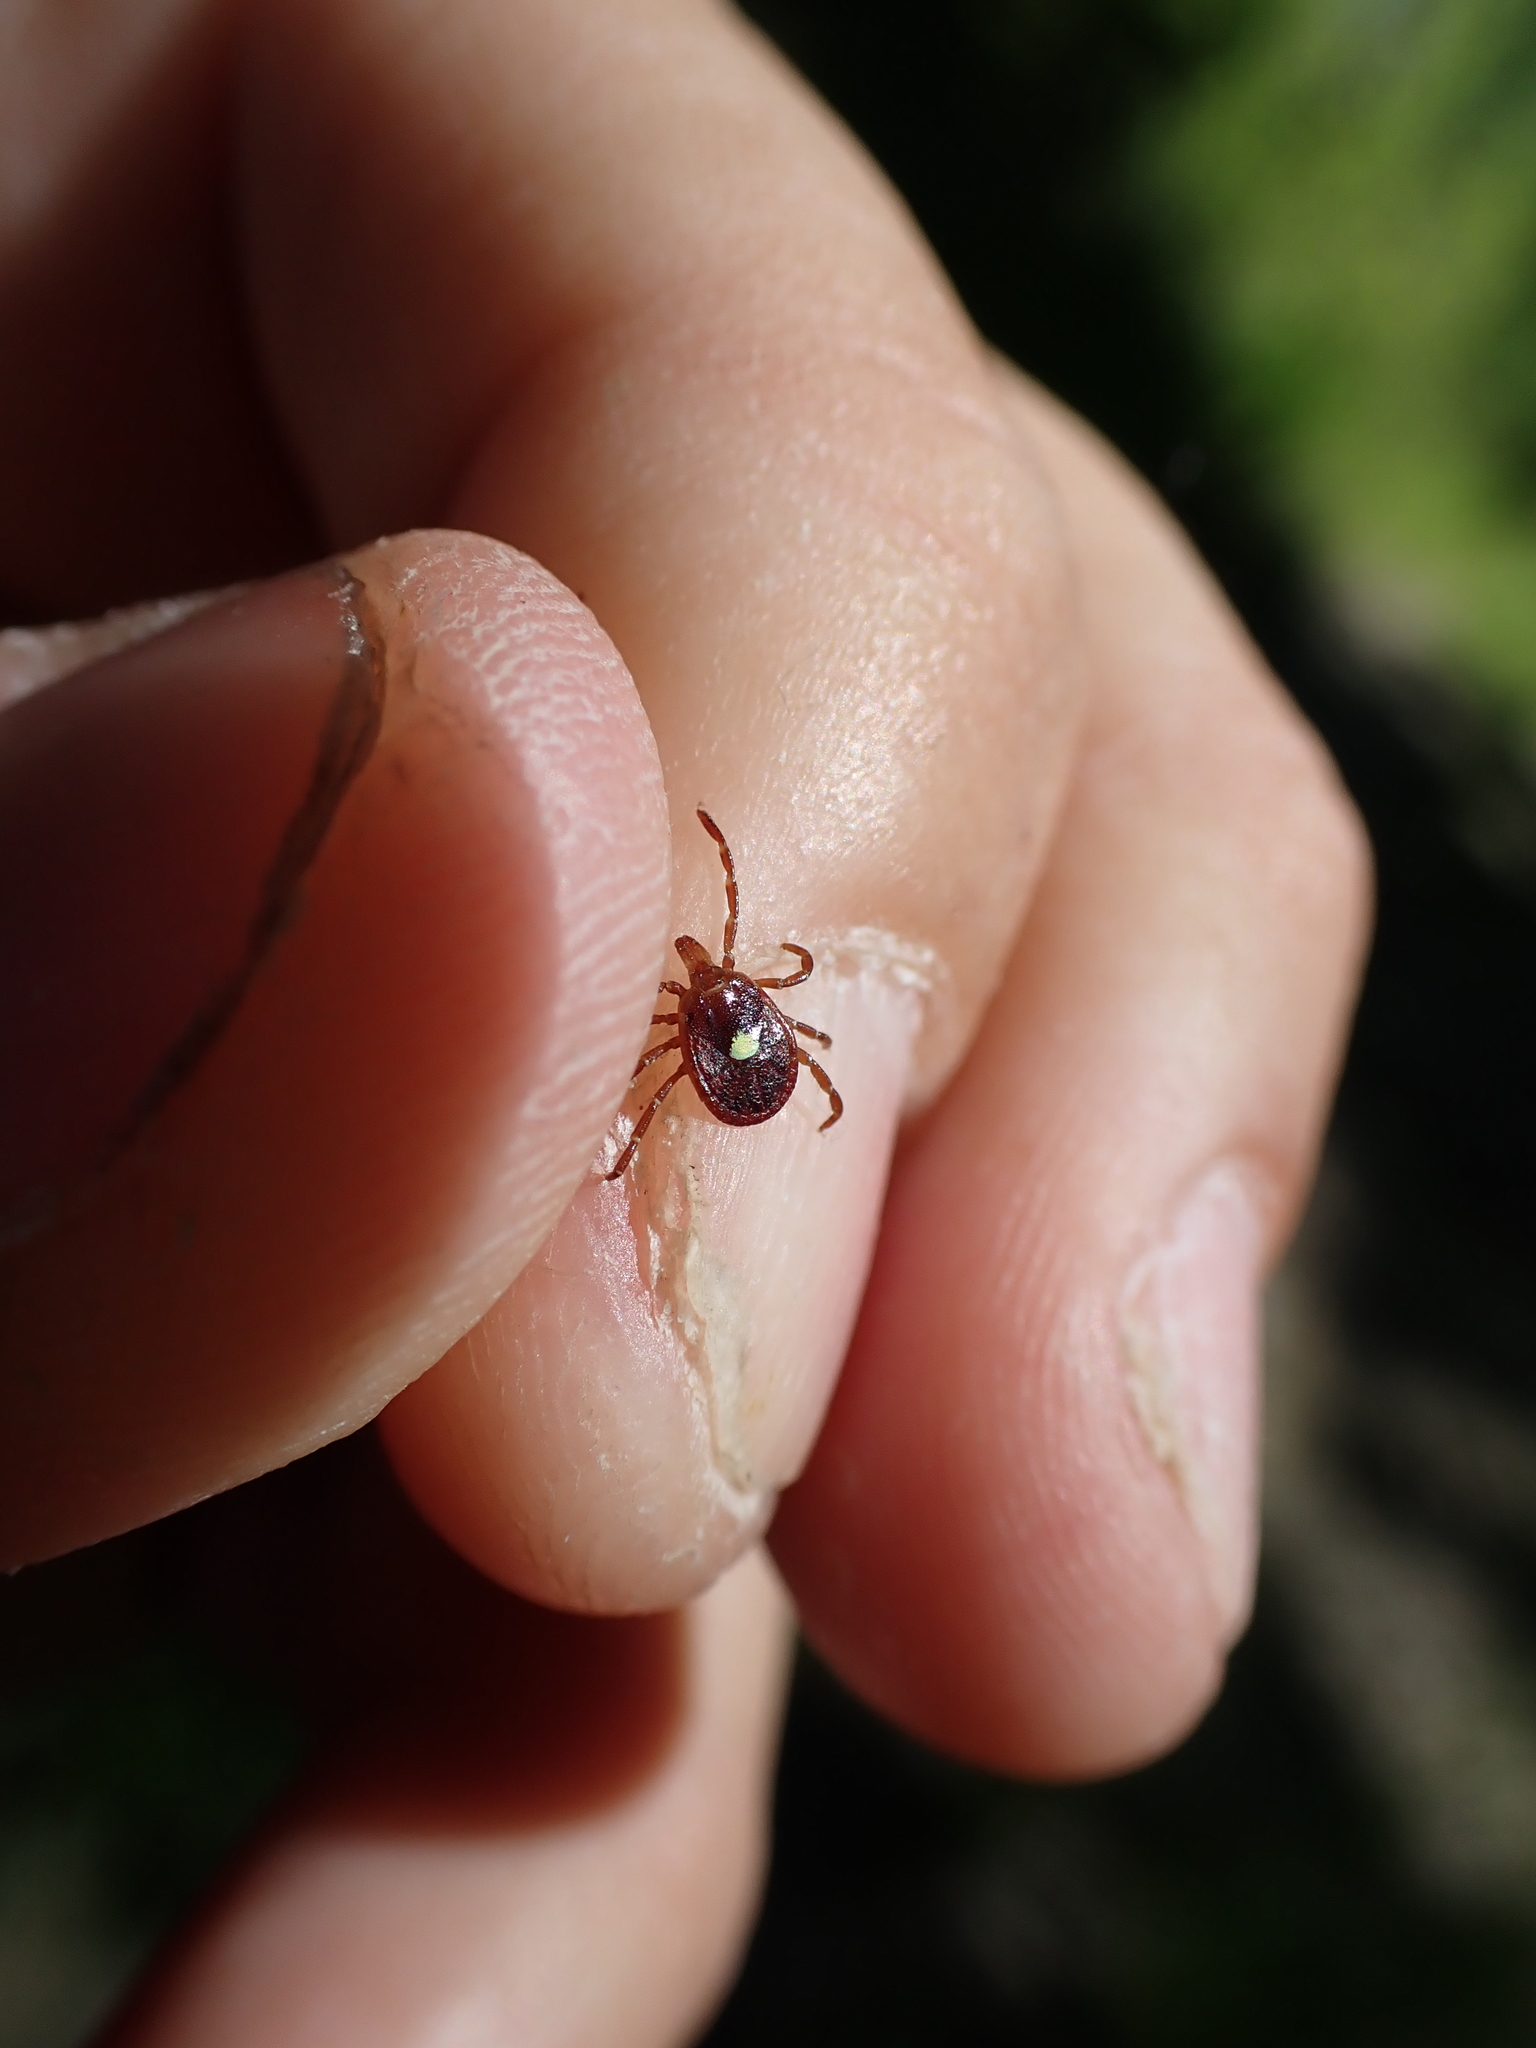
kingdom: Animalia
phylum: Arthropoda
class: Arachnida
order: Ixodida
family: Ixodidae
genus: Amblyomma
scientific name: Amblyomma americanum
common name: Lone star tick
